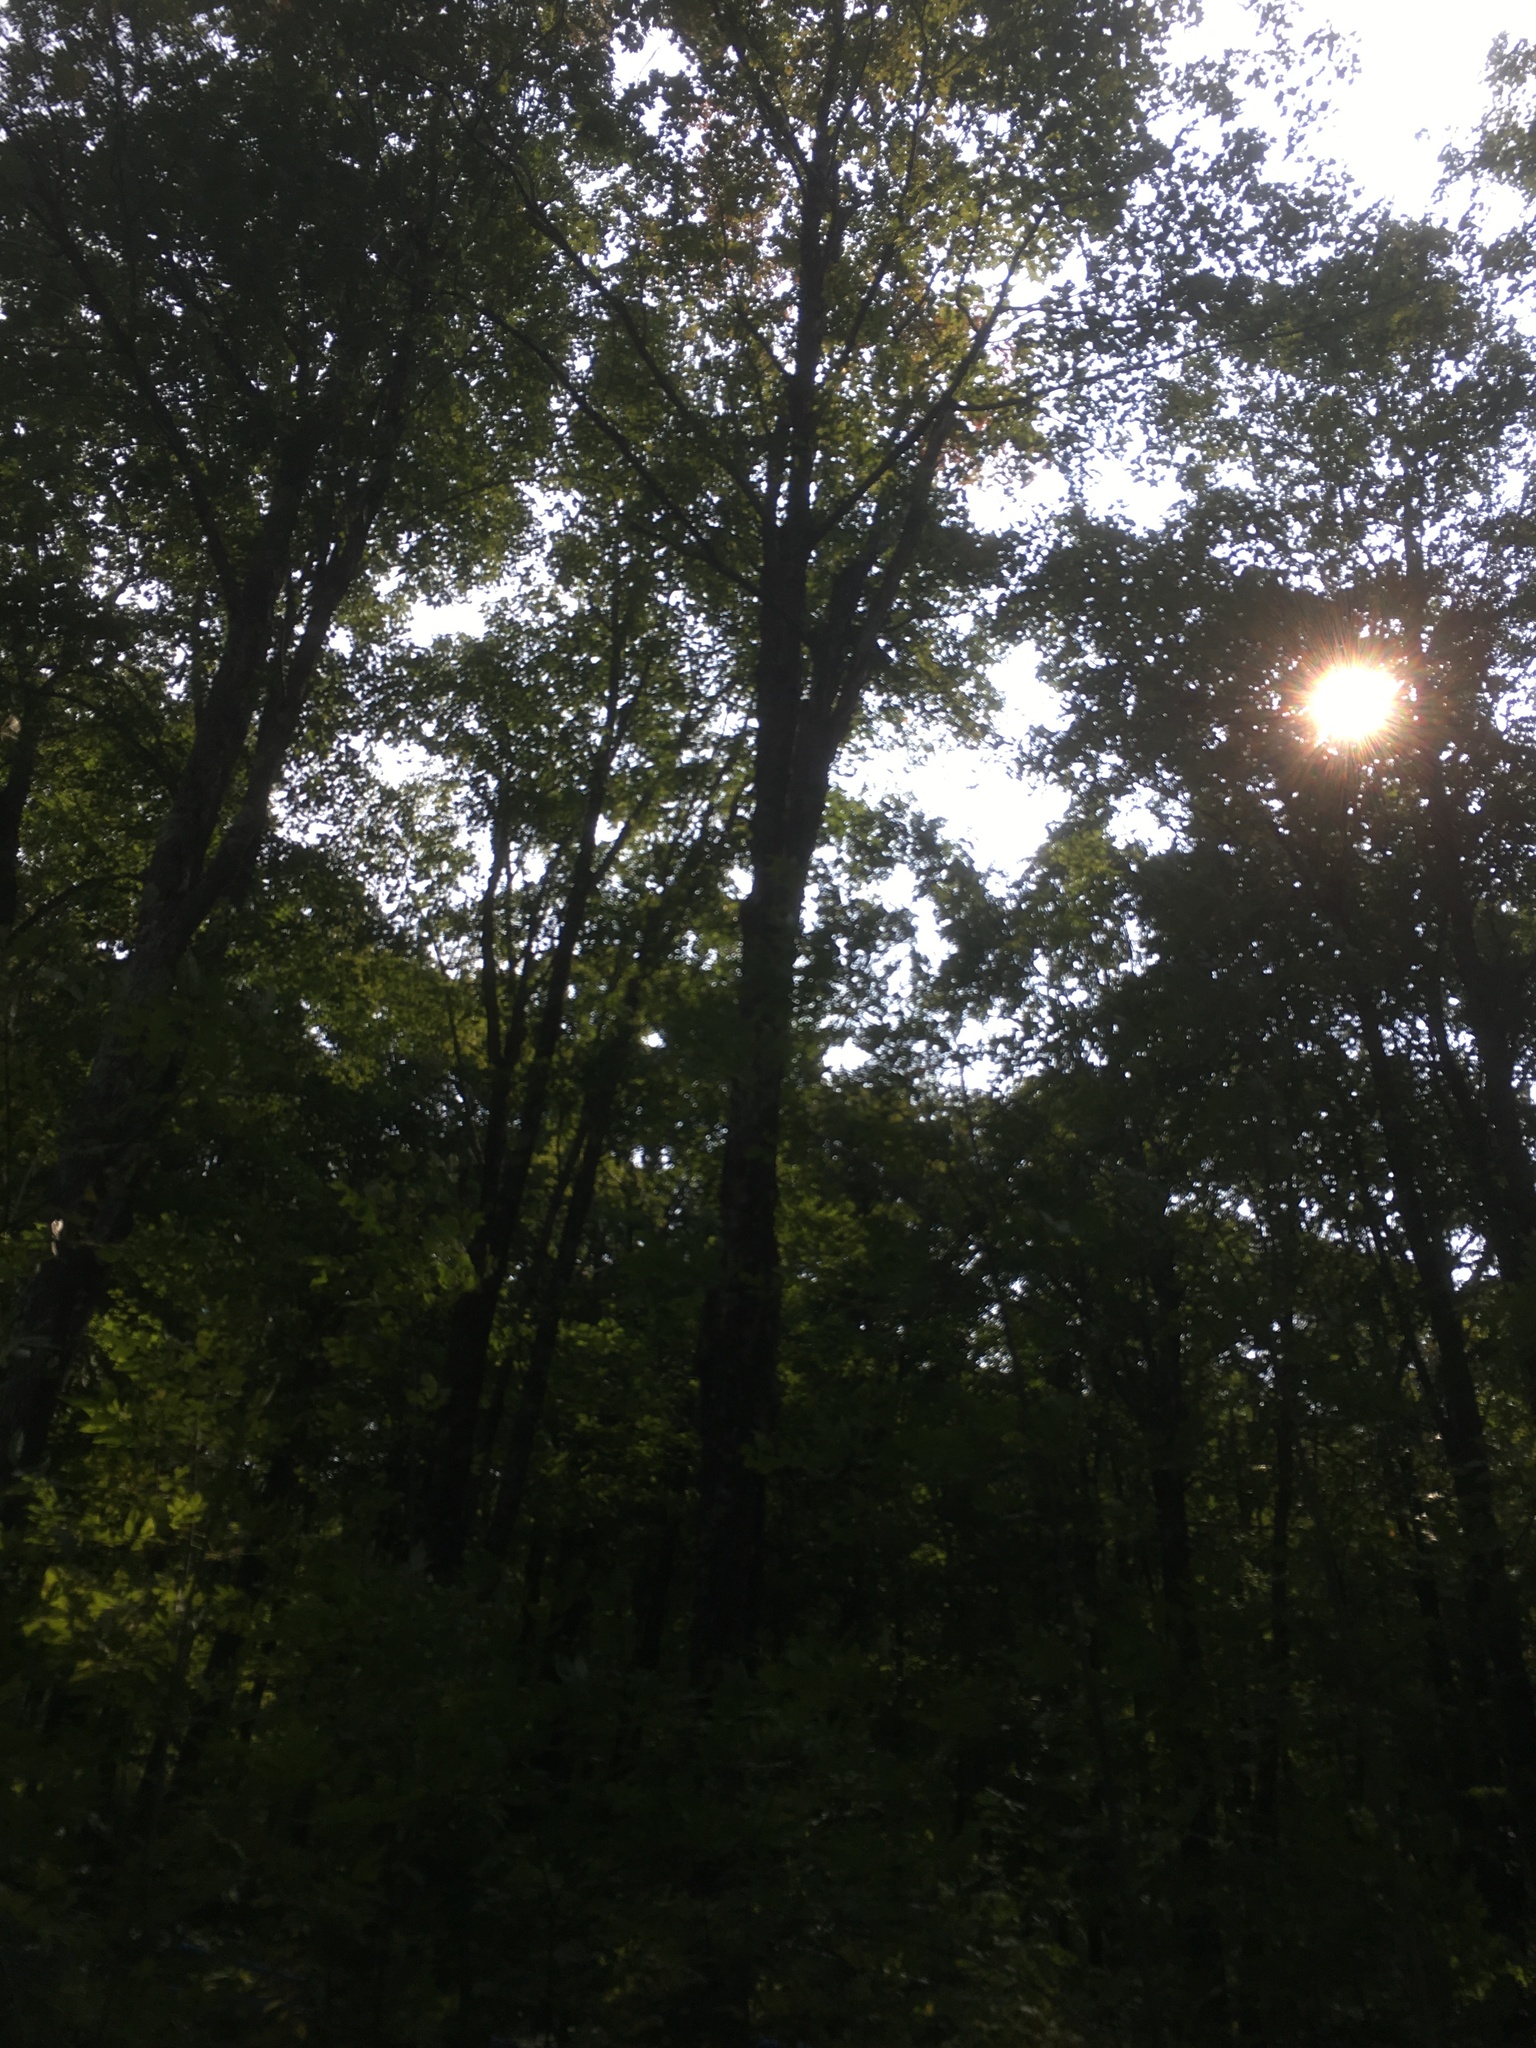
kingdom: Plantae
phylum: Tracheophyta
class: Magnoliopsida
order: Sapindales
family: Sapindaceae
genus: Acer
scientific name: Acer saccharum
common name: Sugar maple
